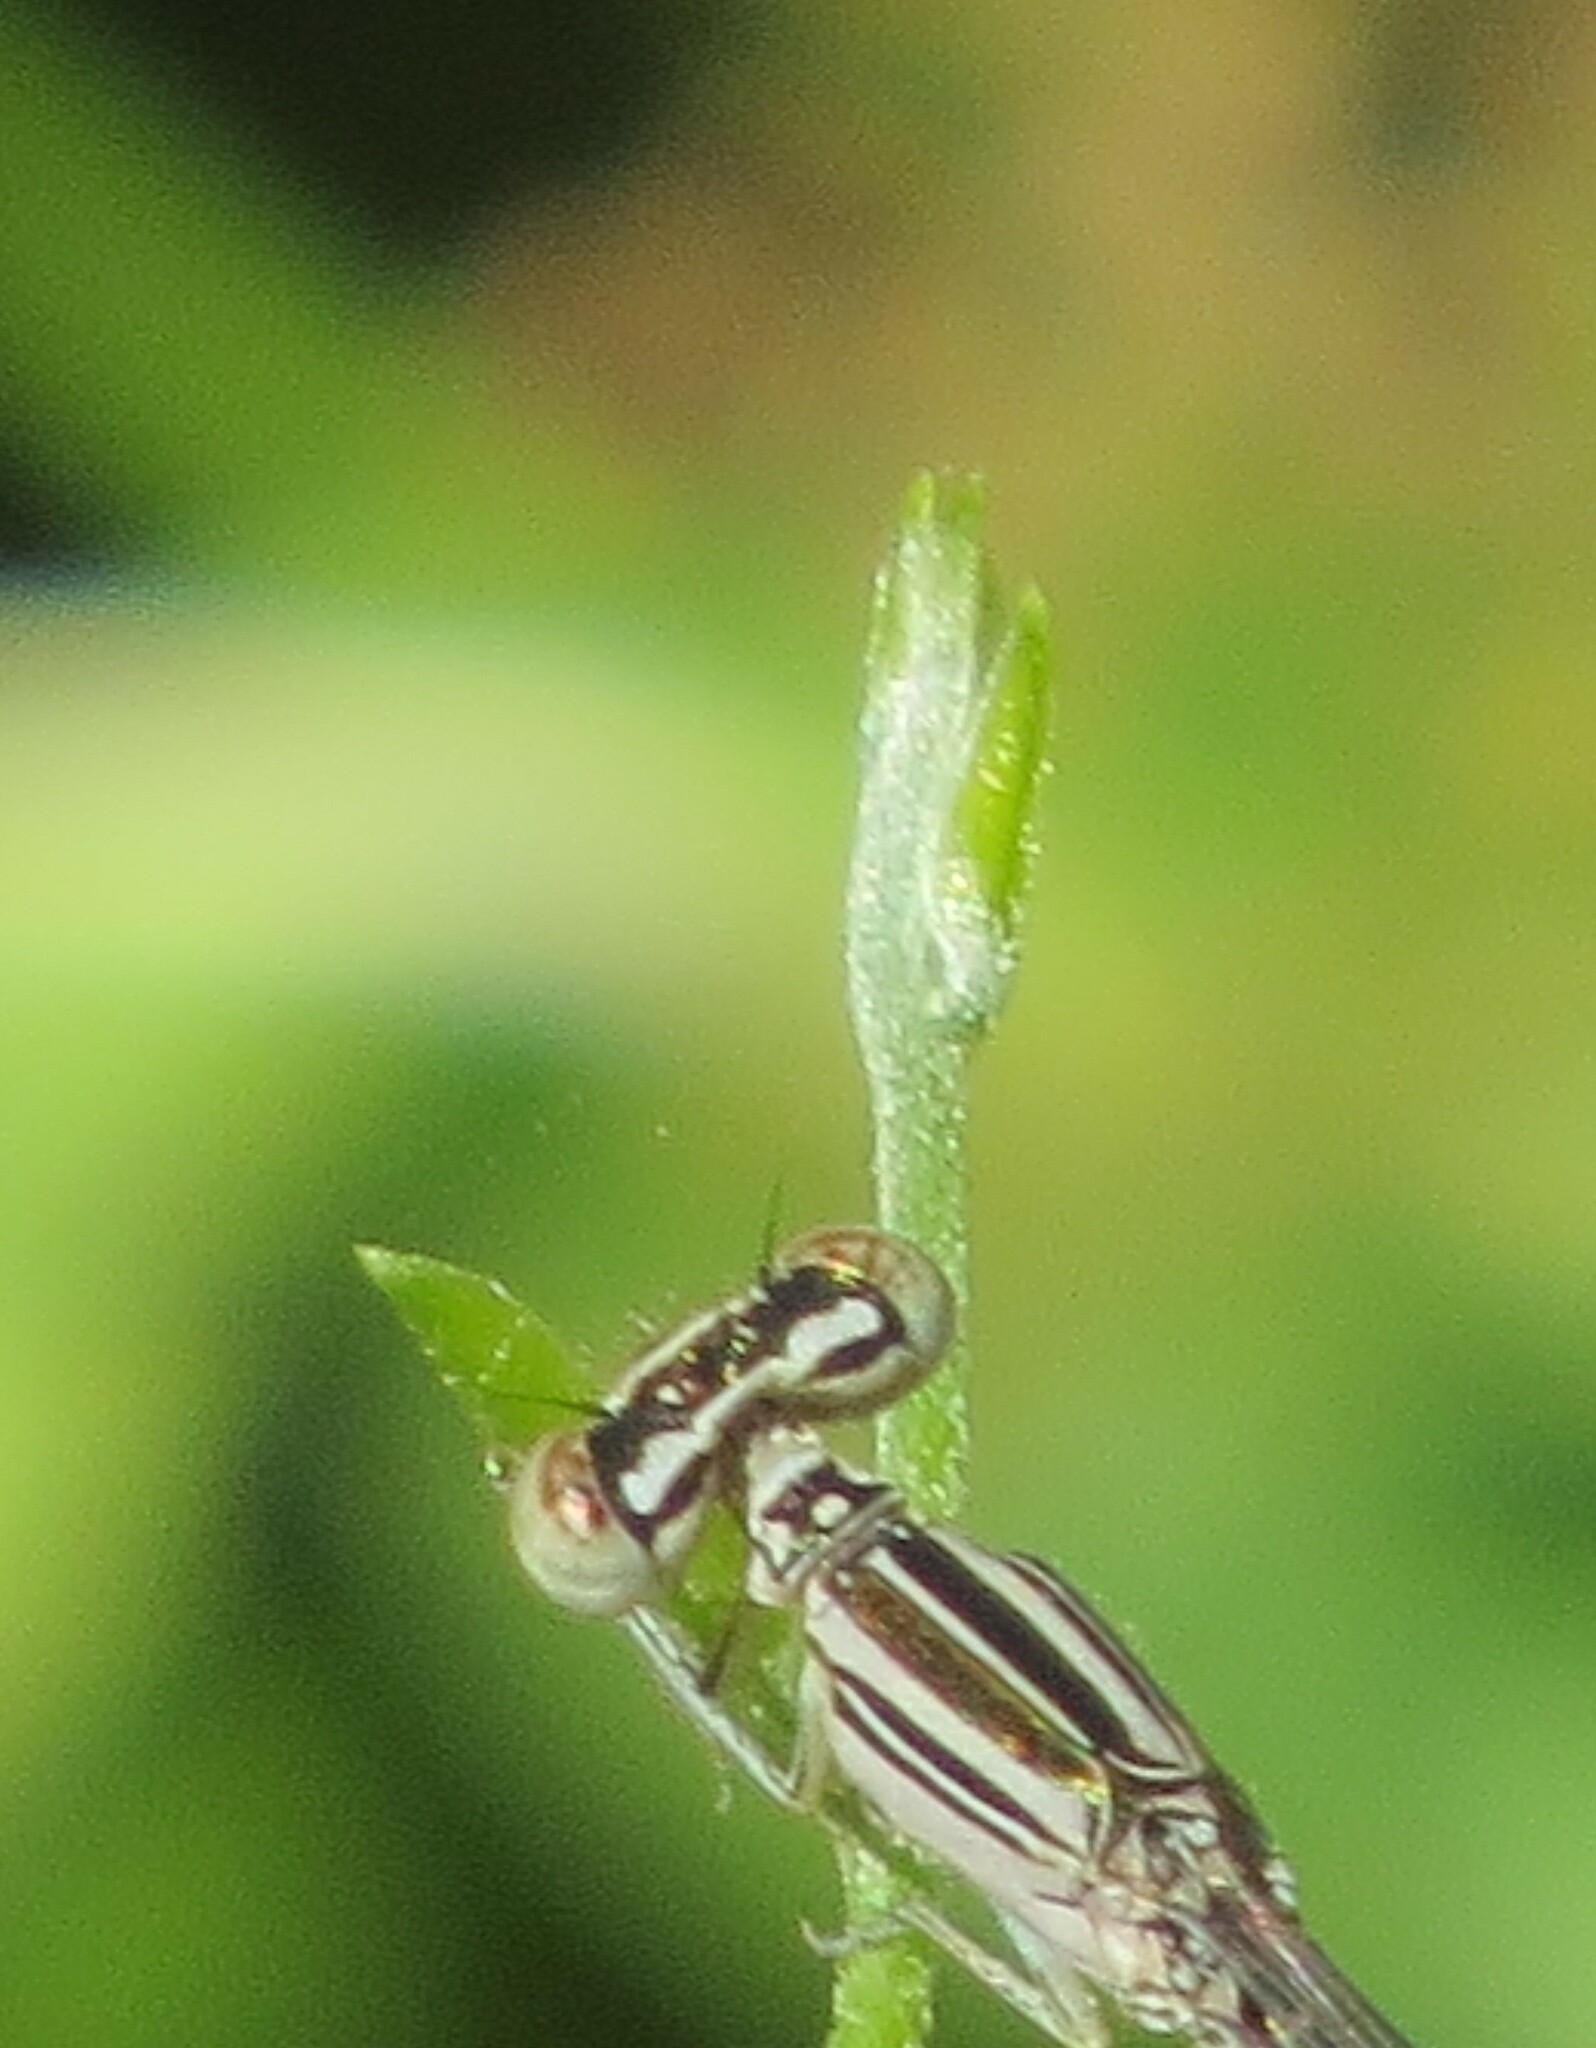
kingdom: Animalia
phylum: Arthropoda
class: Insecta
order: Odonata
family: Coenagrionidae
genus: Enallagma
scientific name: Enallagma basidens
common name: Double-striped bluet
